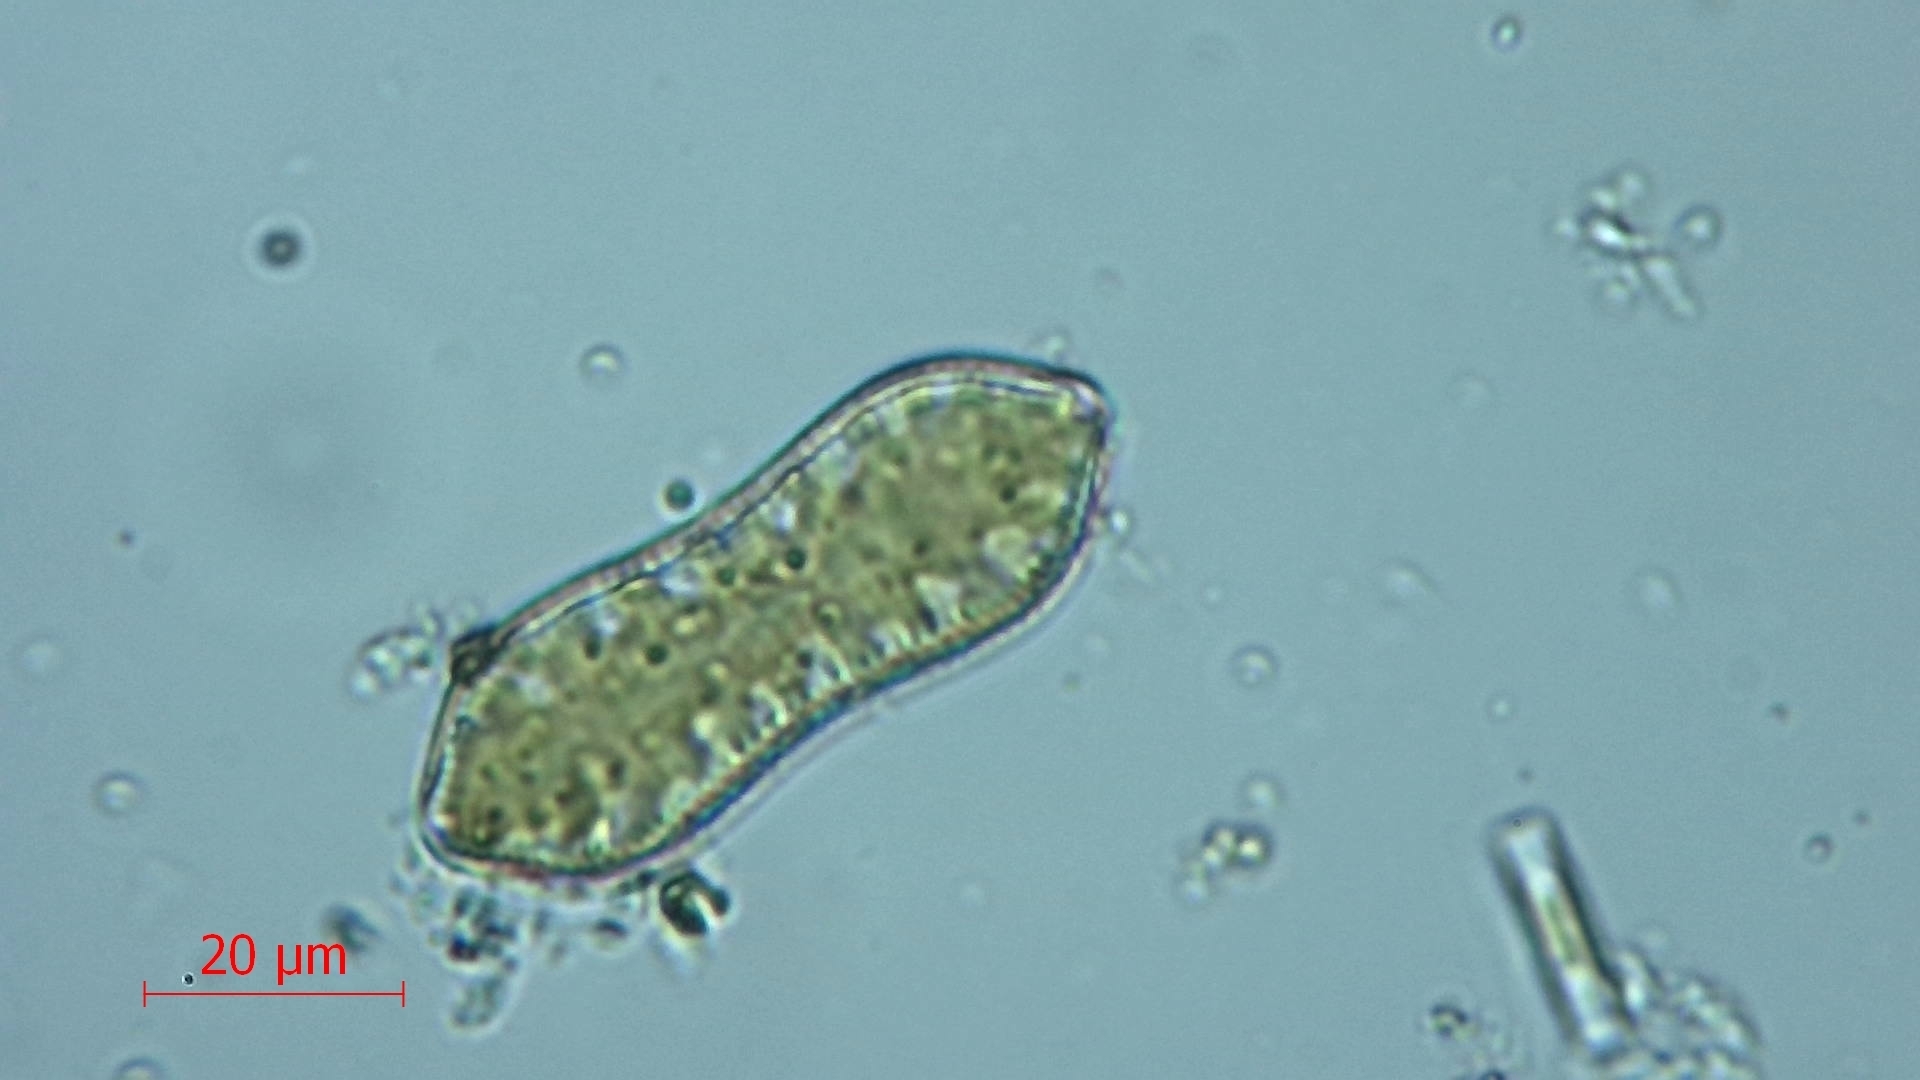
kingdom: Chromista
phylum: Ochrophyta
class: Bacillariophyceae
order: Surirellales
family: Surirellaceae
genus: Surirella
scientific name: Surirella librile
